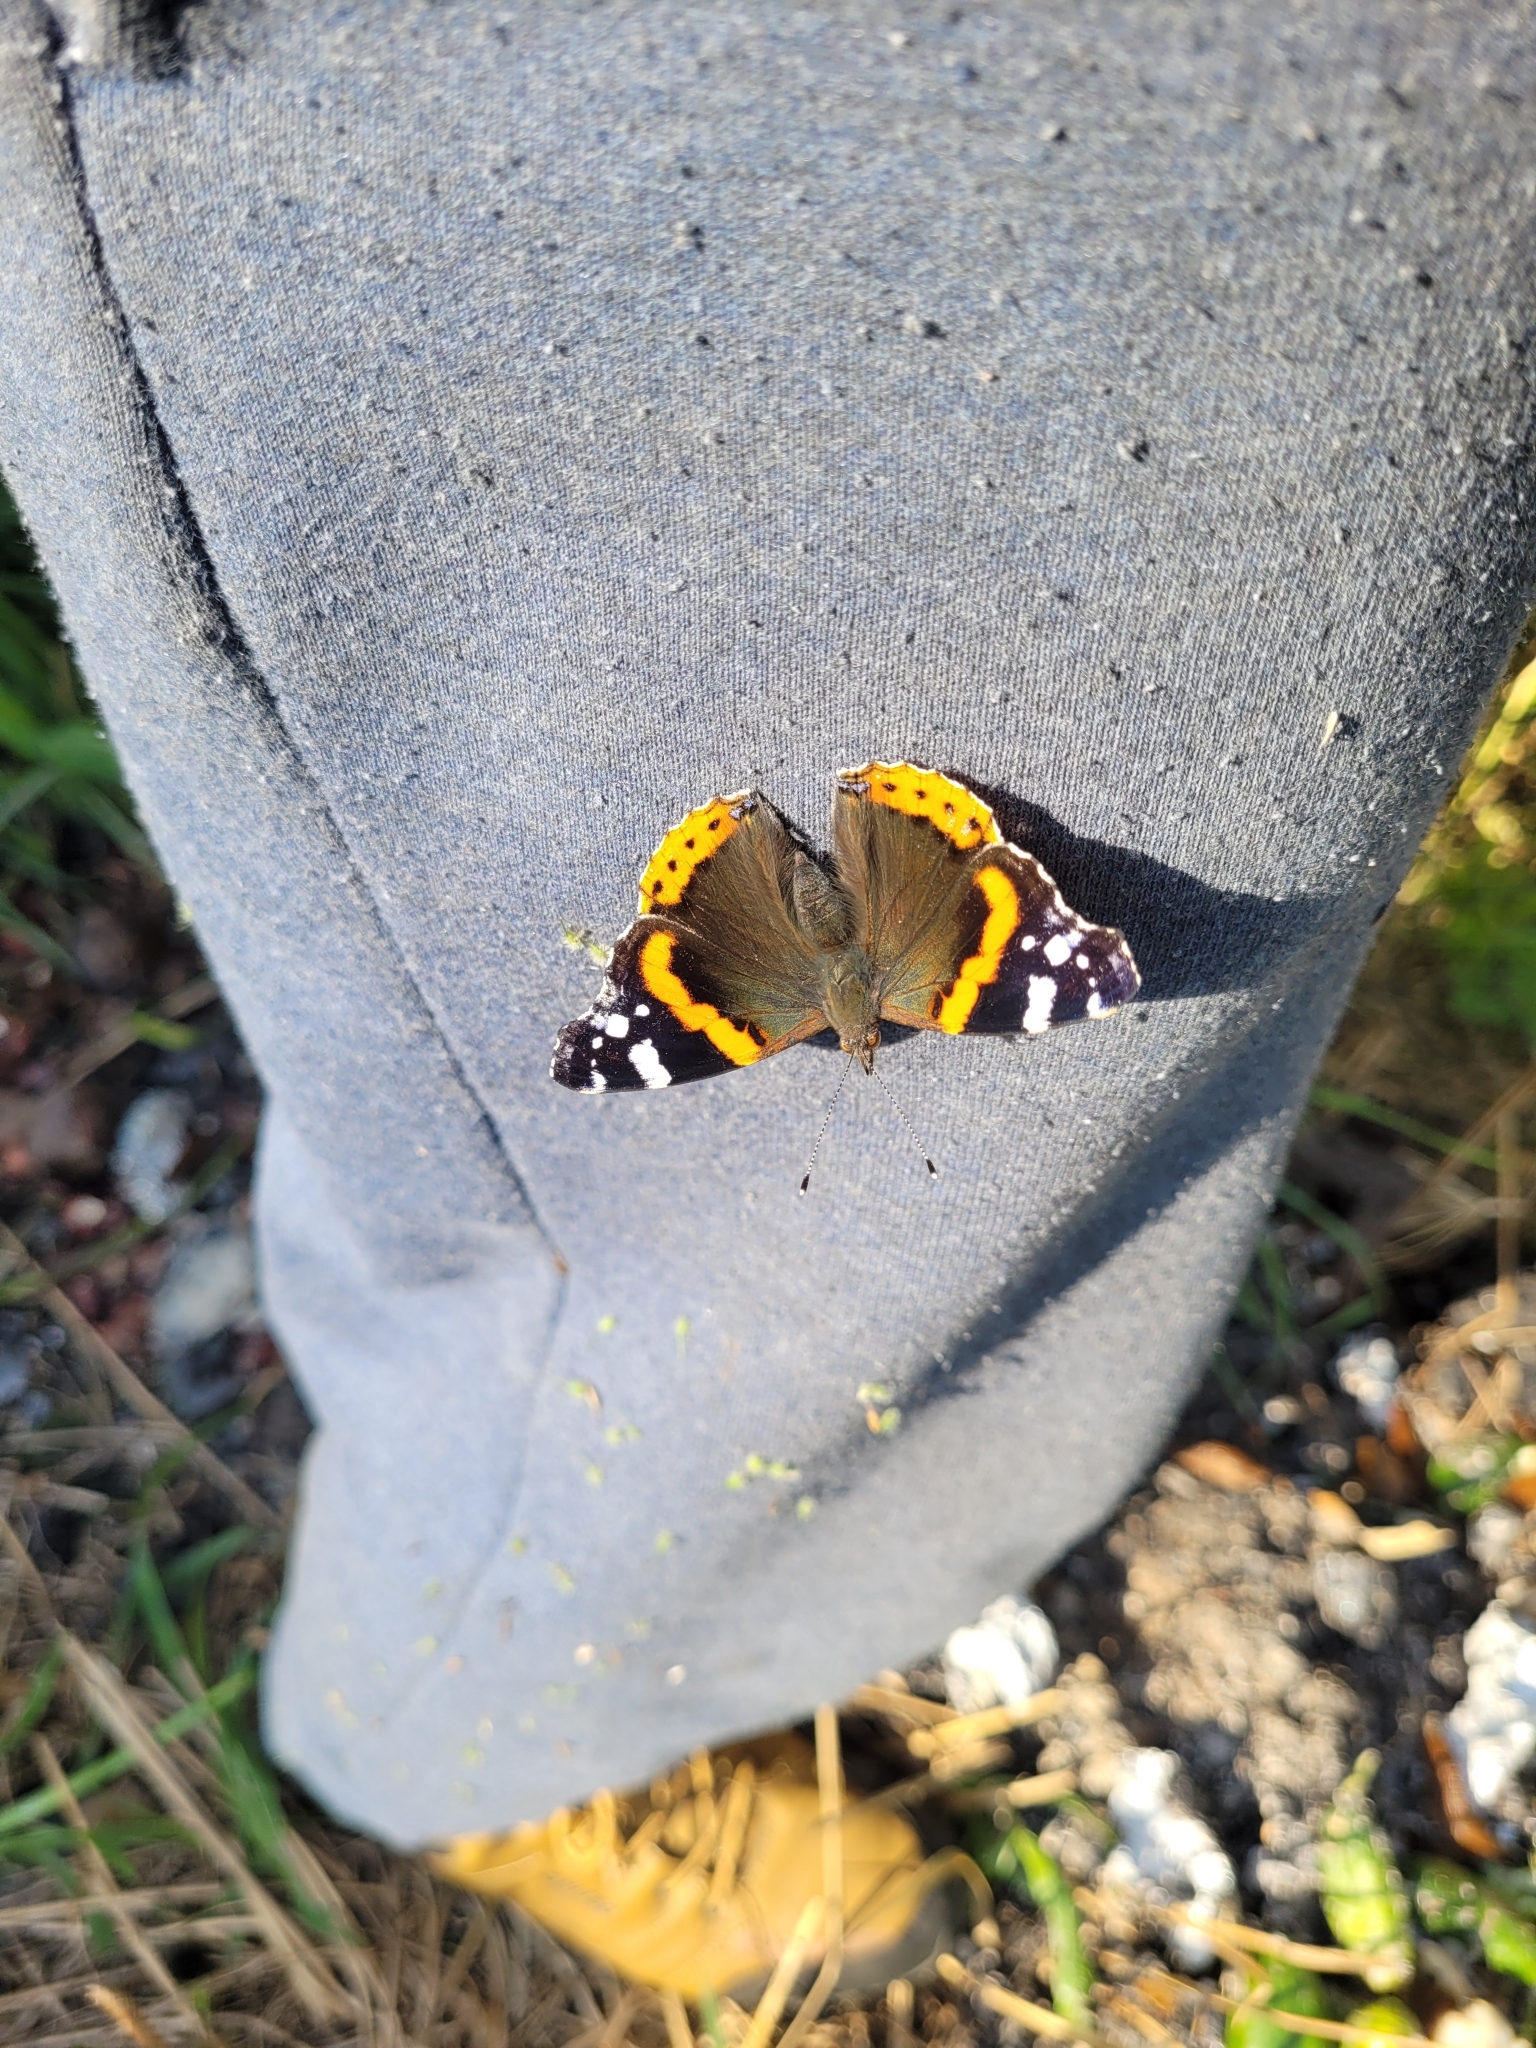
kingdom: Animalia
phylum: Arthropoda
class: Insecta
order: Lepidoptera
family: Nymphalidae
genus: Vanessa
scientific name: Vanessa atalanta
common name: Red admiral
